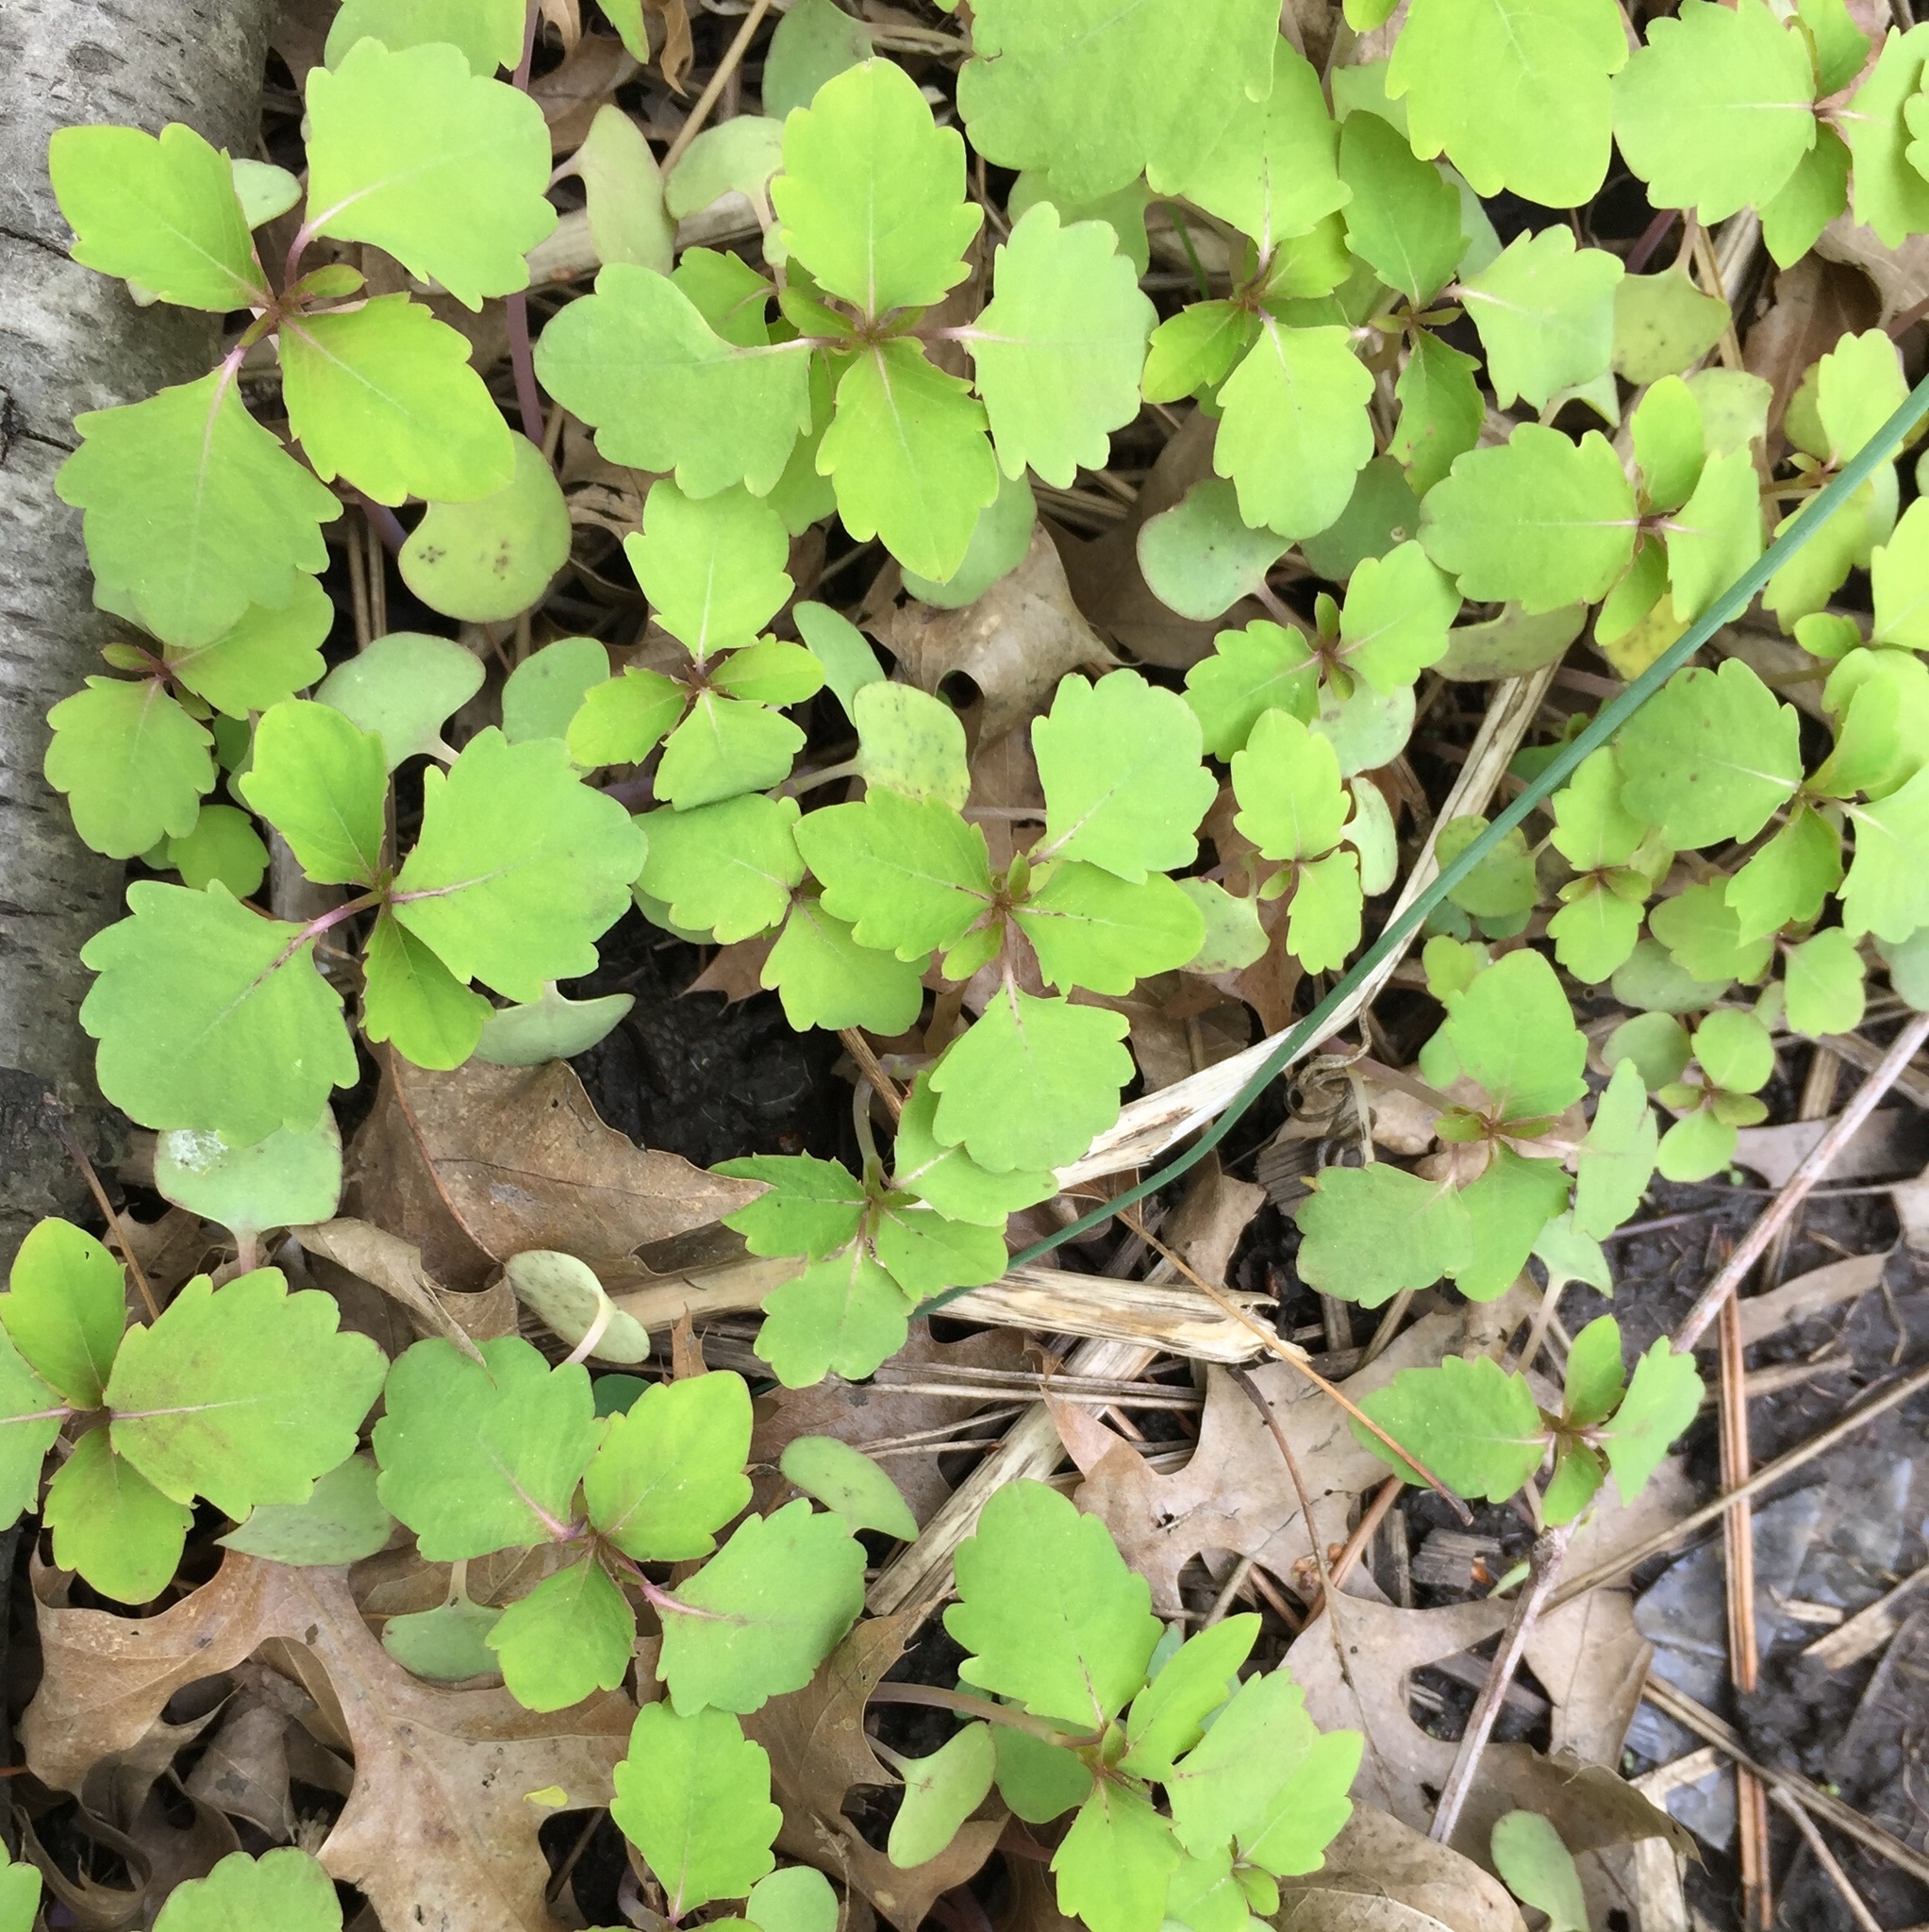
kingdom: Plantae
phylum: Tracheophyta
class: Magnoliopsida
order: Ericales
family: Balsaminaceae
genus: Impatiens
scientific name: Impatiens capensis
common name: Orange balsam
